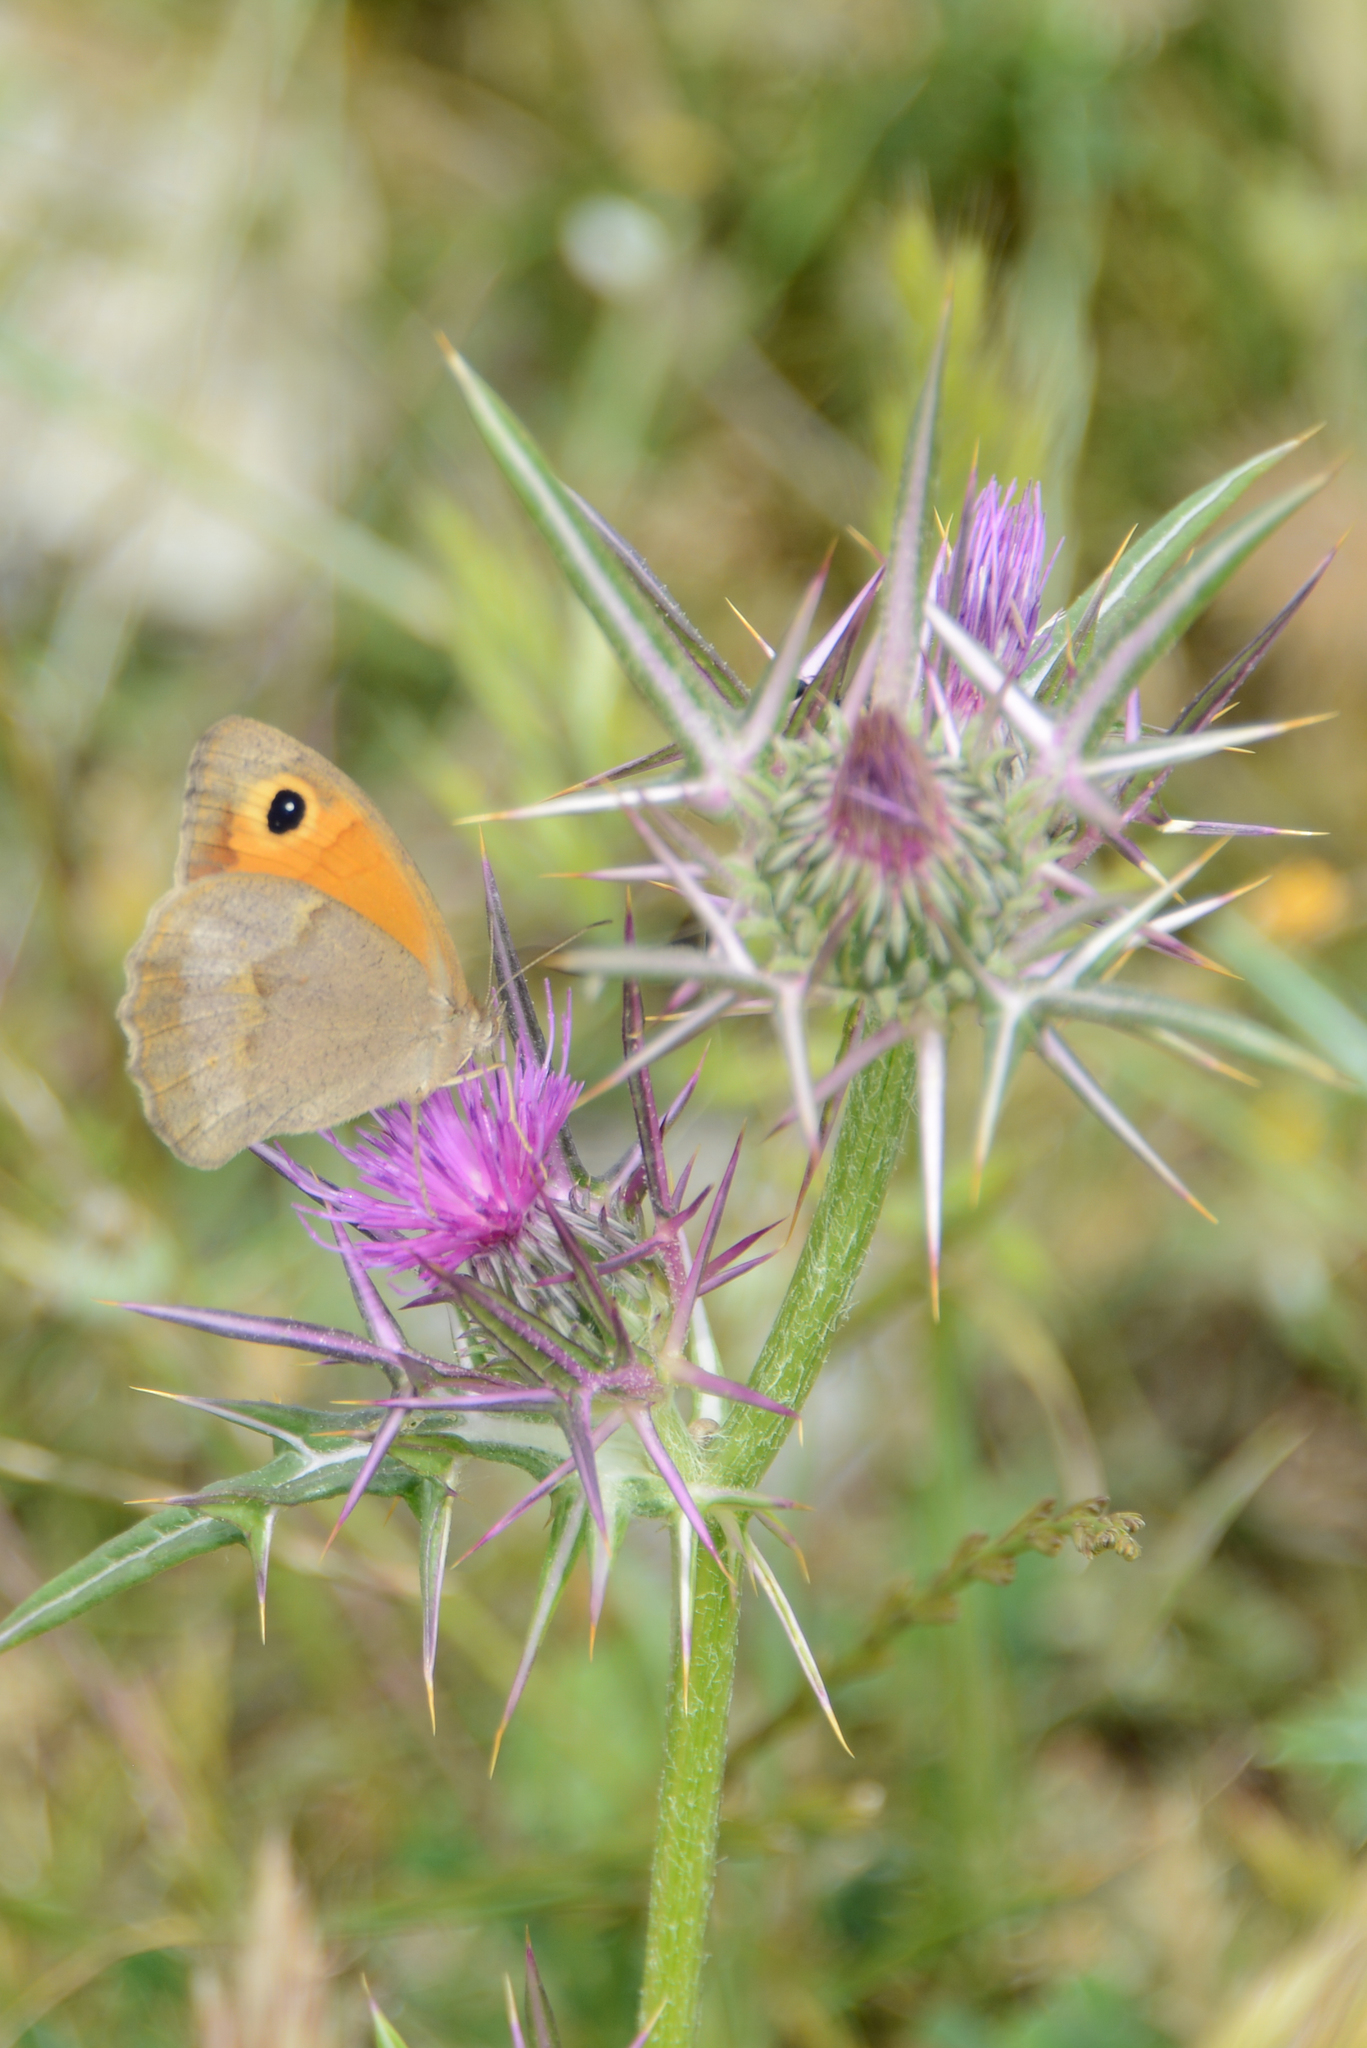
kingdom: Animalia
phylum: Arthropoda
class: Insecta
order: Lepidoptera
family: Nymphalidae
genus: Maniola
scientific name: Maniola jurtina
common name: Meadow brown
